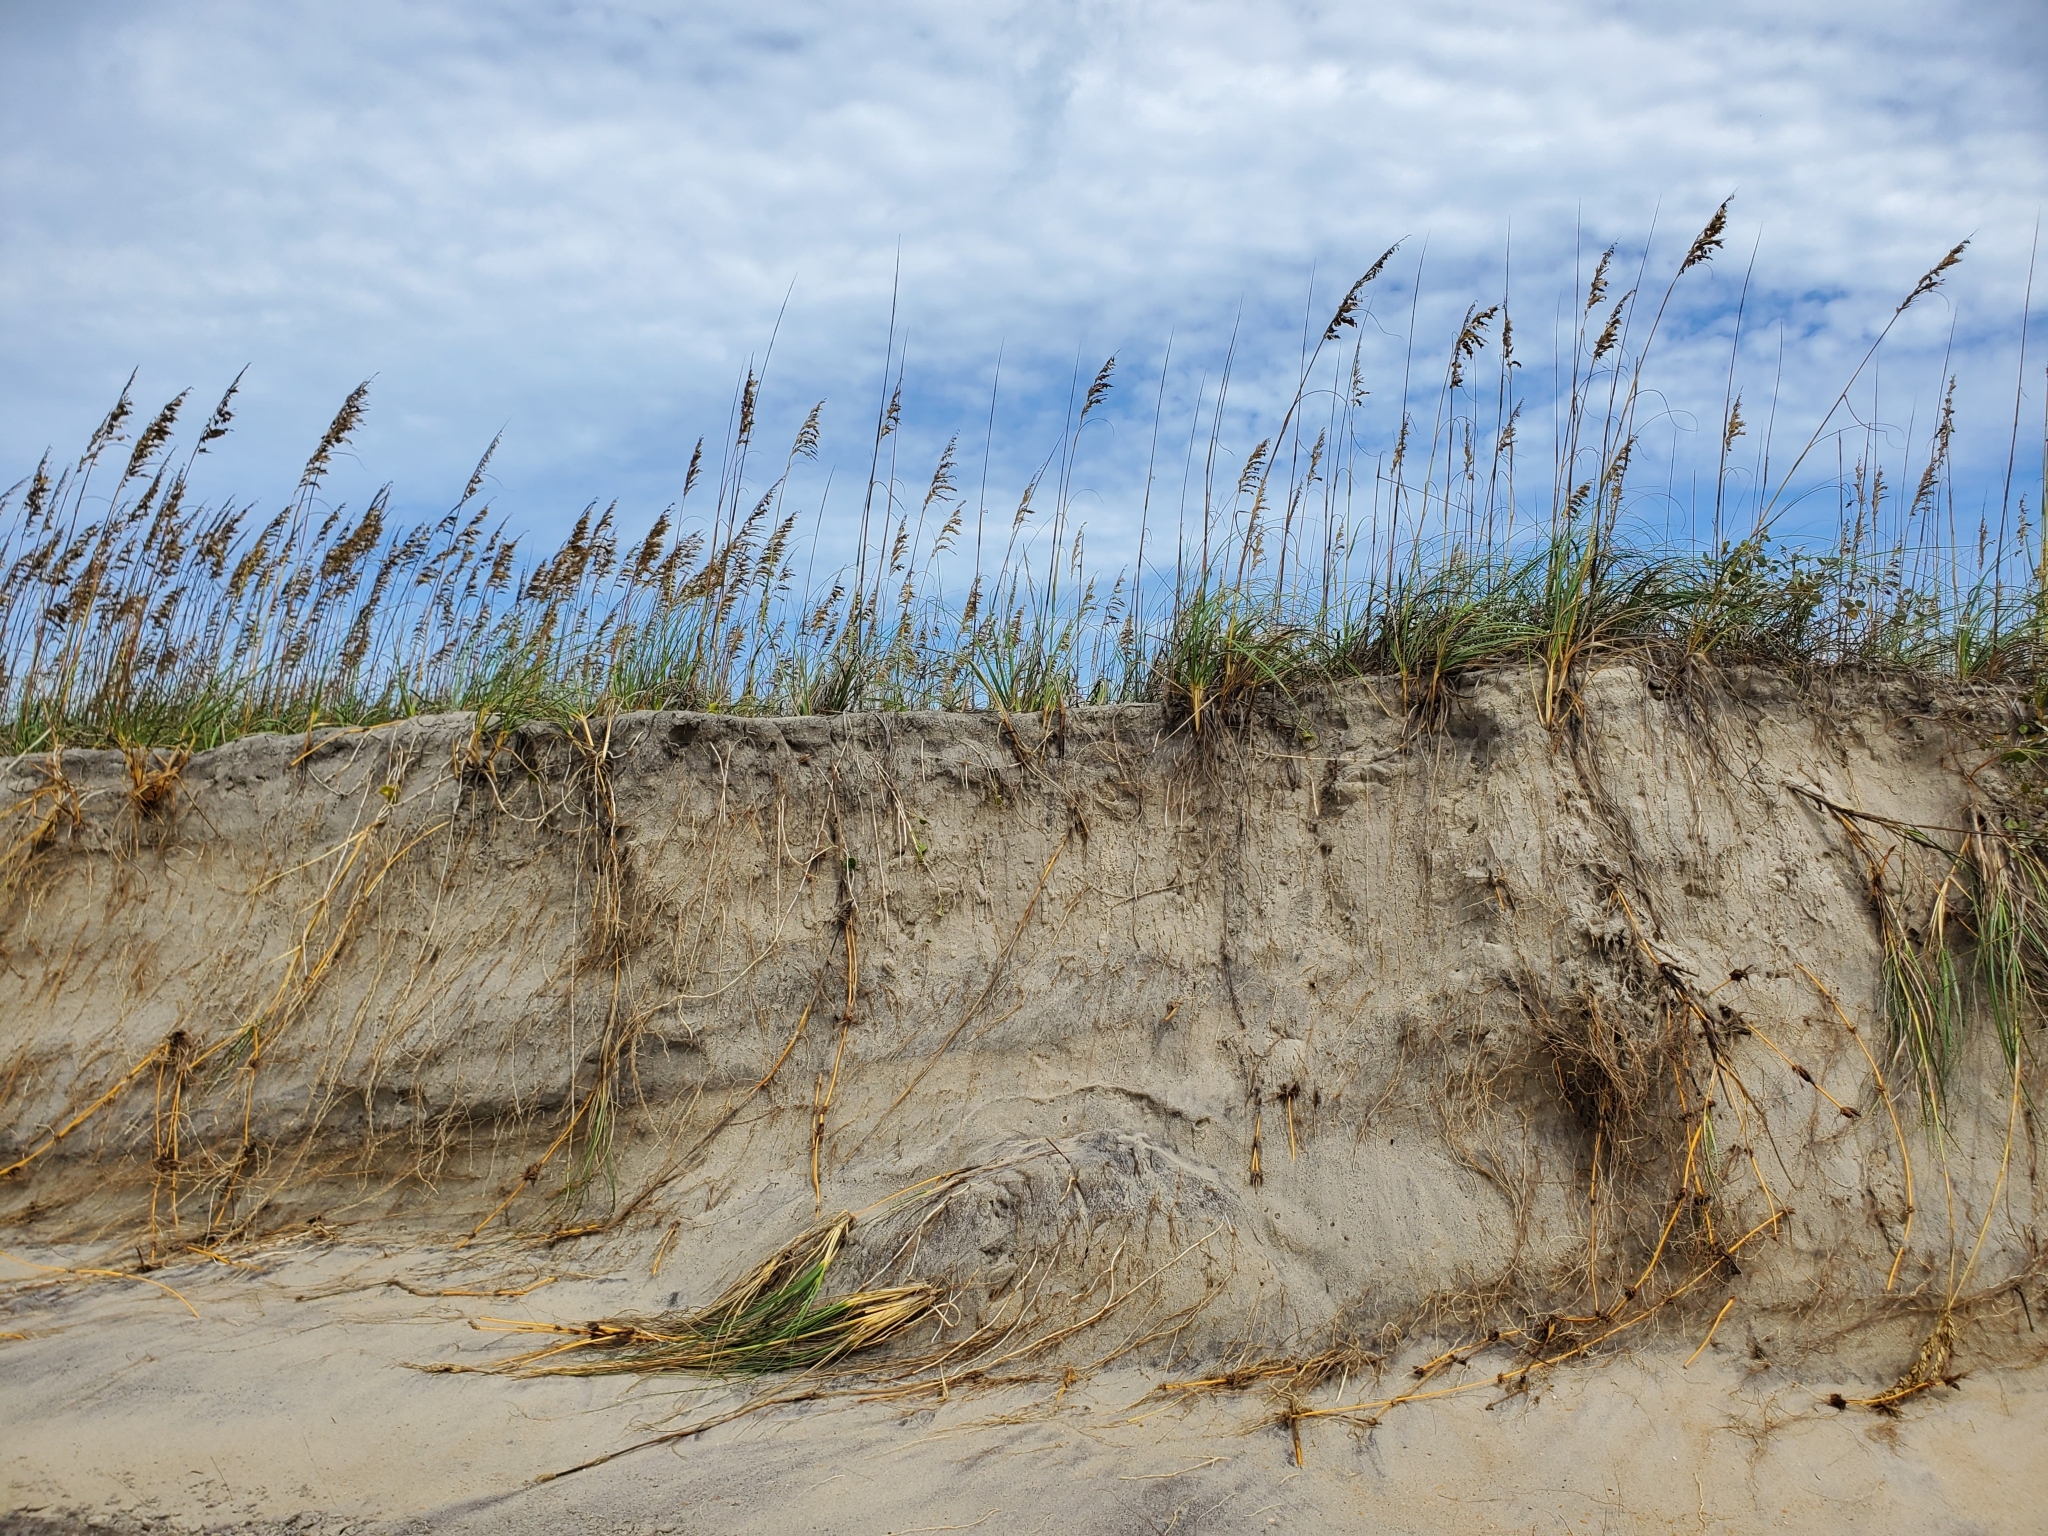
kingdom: Plantae
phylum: Tracheophyta
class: Liliopsida
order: Poales
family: Poaceae
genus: Uniola
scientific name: Uniola paniculata
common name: Seaside-oats
